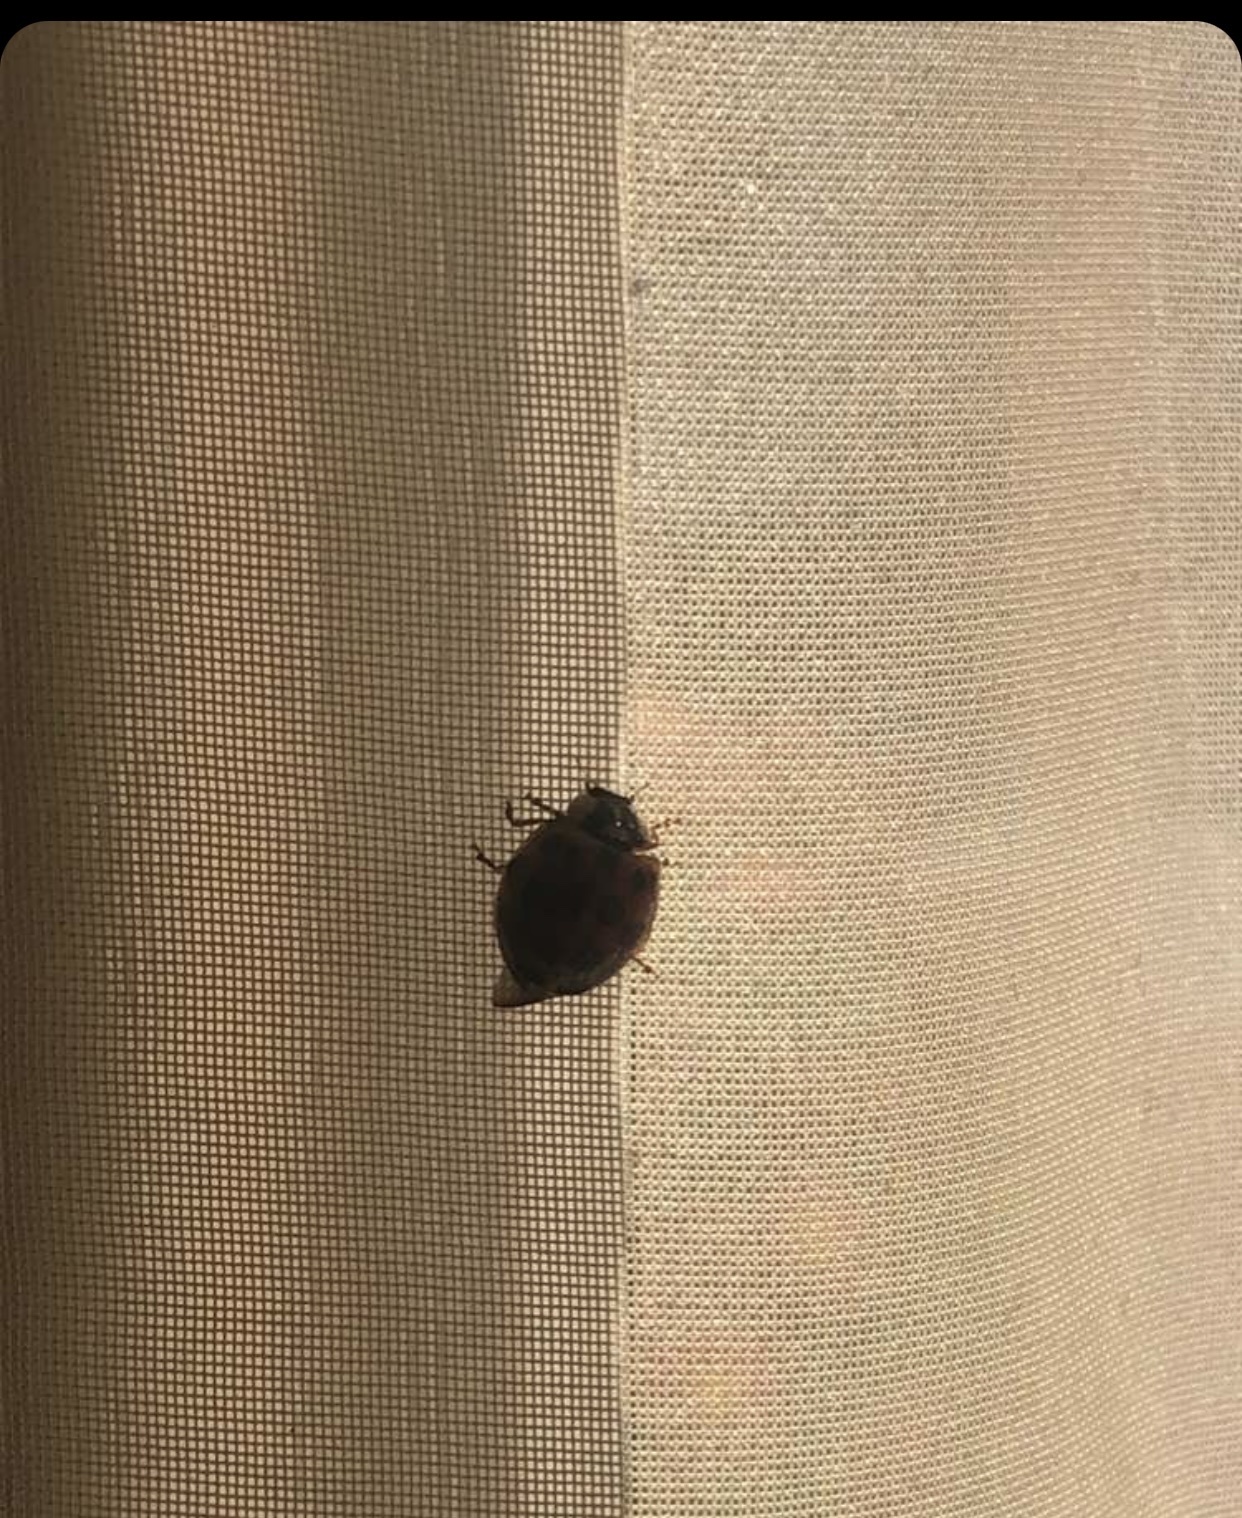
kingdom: Animalia
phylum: Arthropoda
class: Insecta
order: Coleoptera
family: Coccinellidae
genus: Harmonia
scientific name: Harmonia axyridis
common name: Harlequin ladybird
